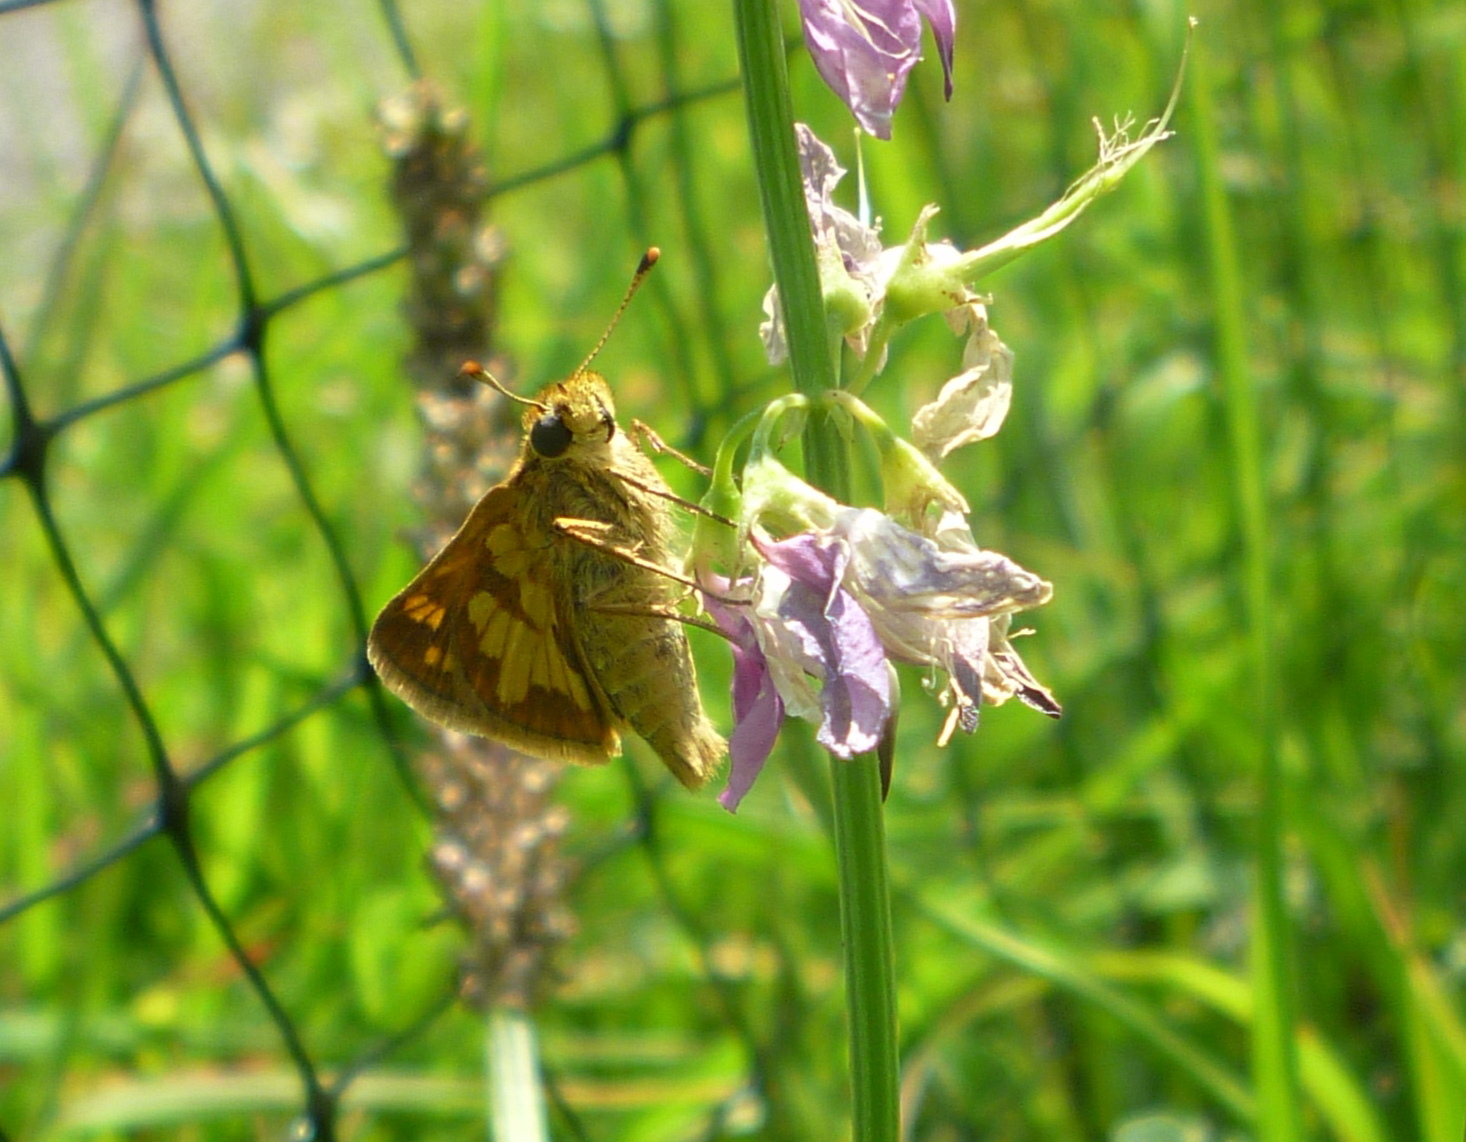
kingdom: Animalia
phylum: Arthropoda
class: Insecta
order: Lepidoptera
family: Hesperiidae
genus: Polites
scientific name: Polites coras
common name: Peck's skipper
